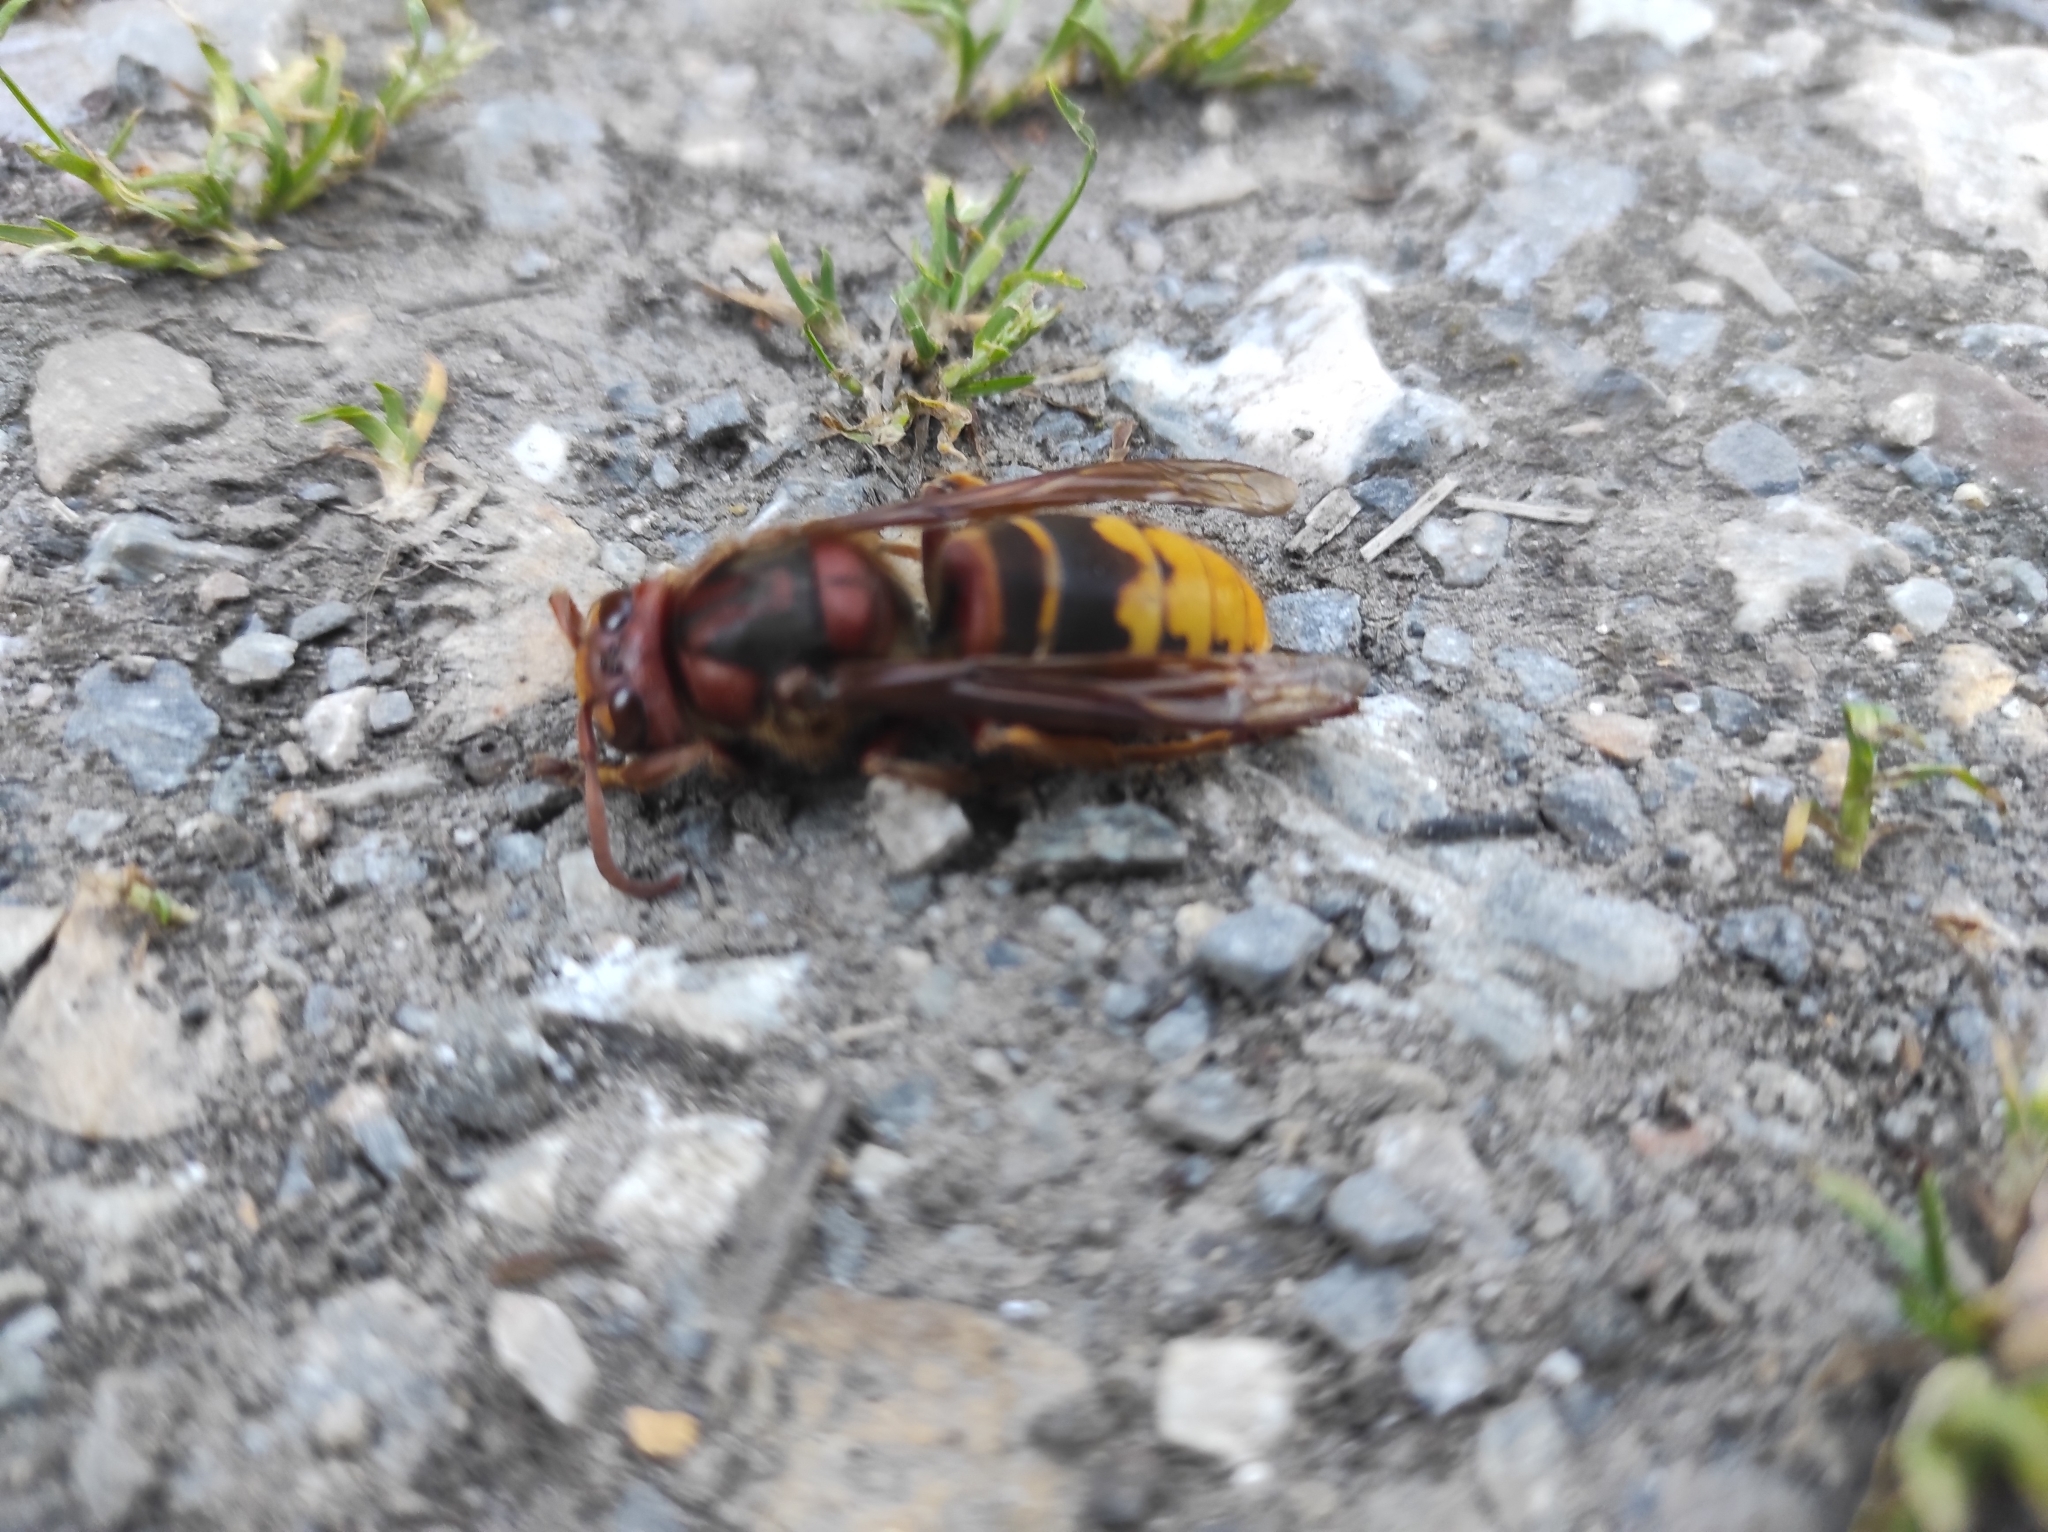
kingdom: Animalia
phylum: Arthropoda
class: Insecta
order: Hymenoptera
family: Vespidae
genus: Vespa
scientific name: Vespa crabro
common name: Hornet
